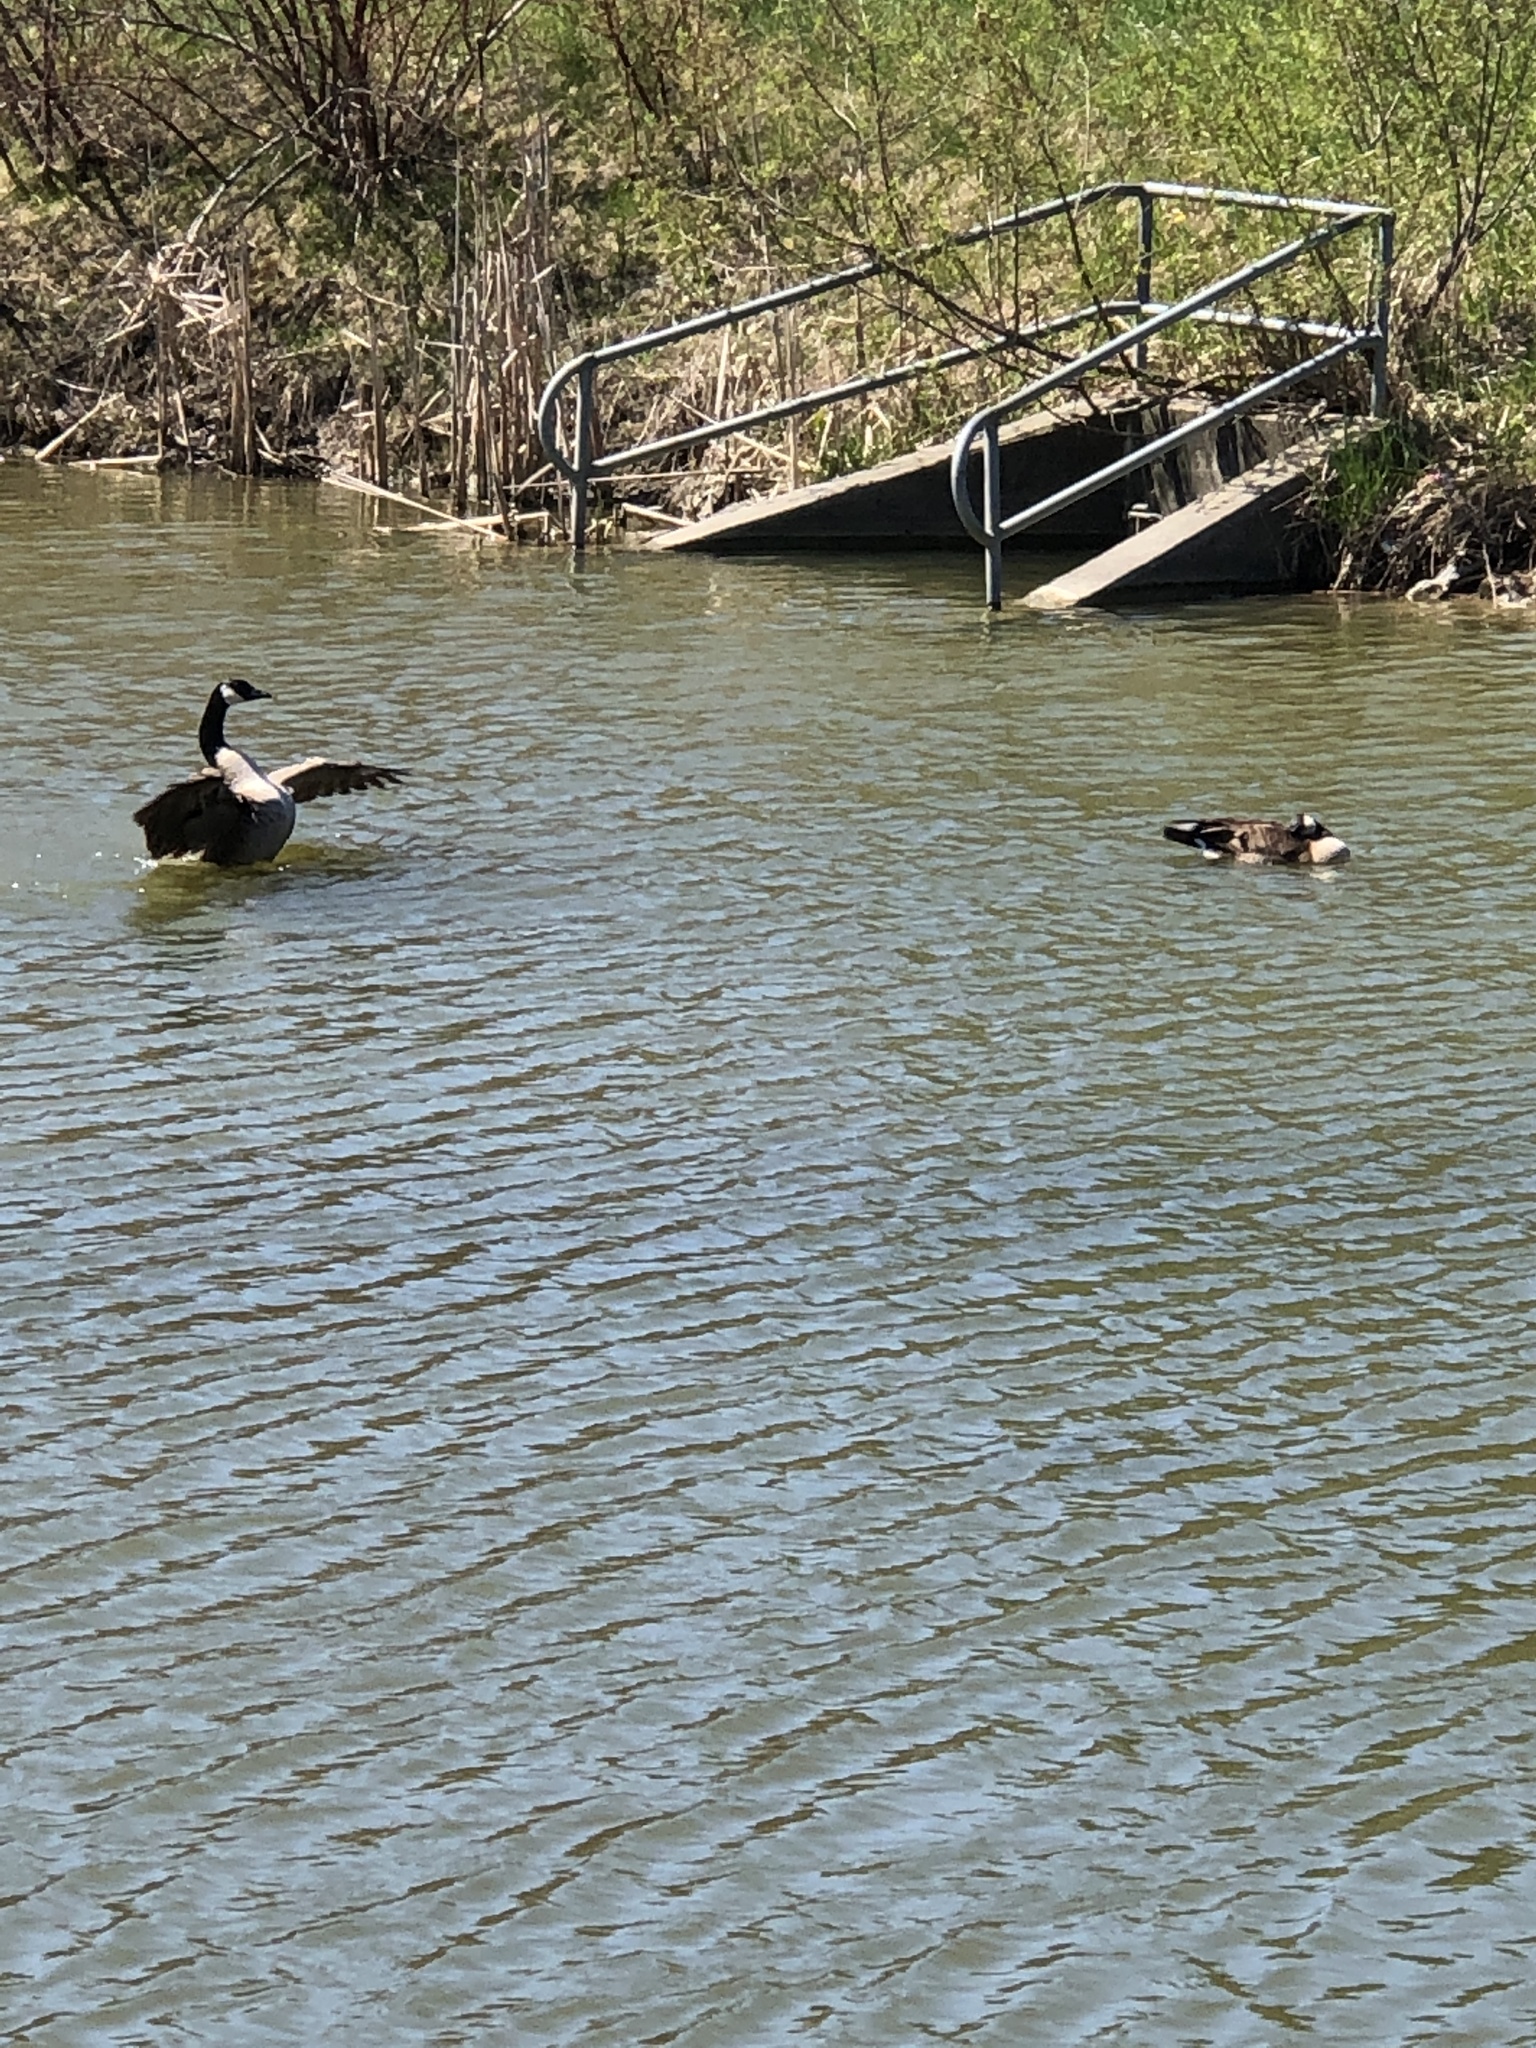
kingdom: Animalia
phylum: Chordata
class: Aves
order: Anseriformes
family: Anatidae
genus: Branta
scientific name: Branta canadensis
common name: Canada goose
